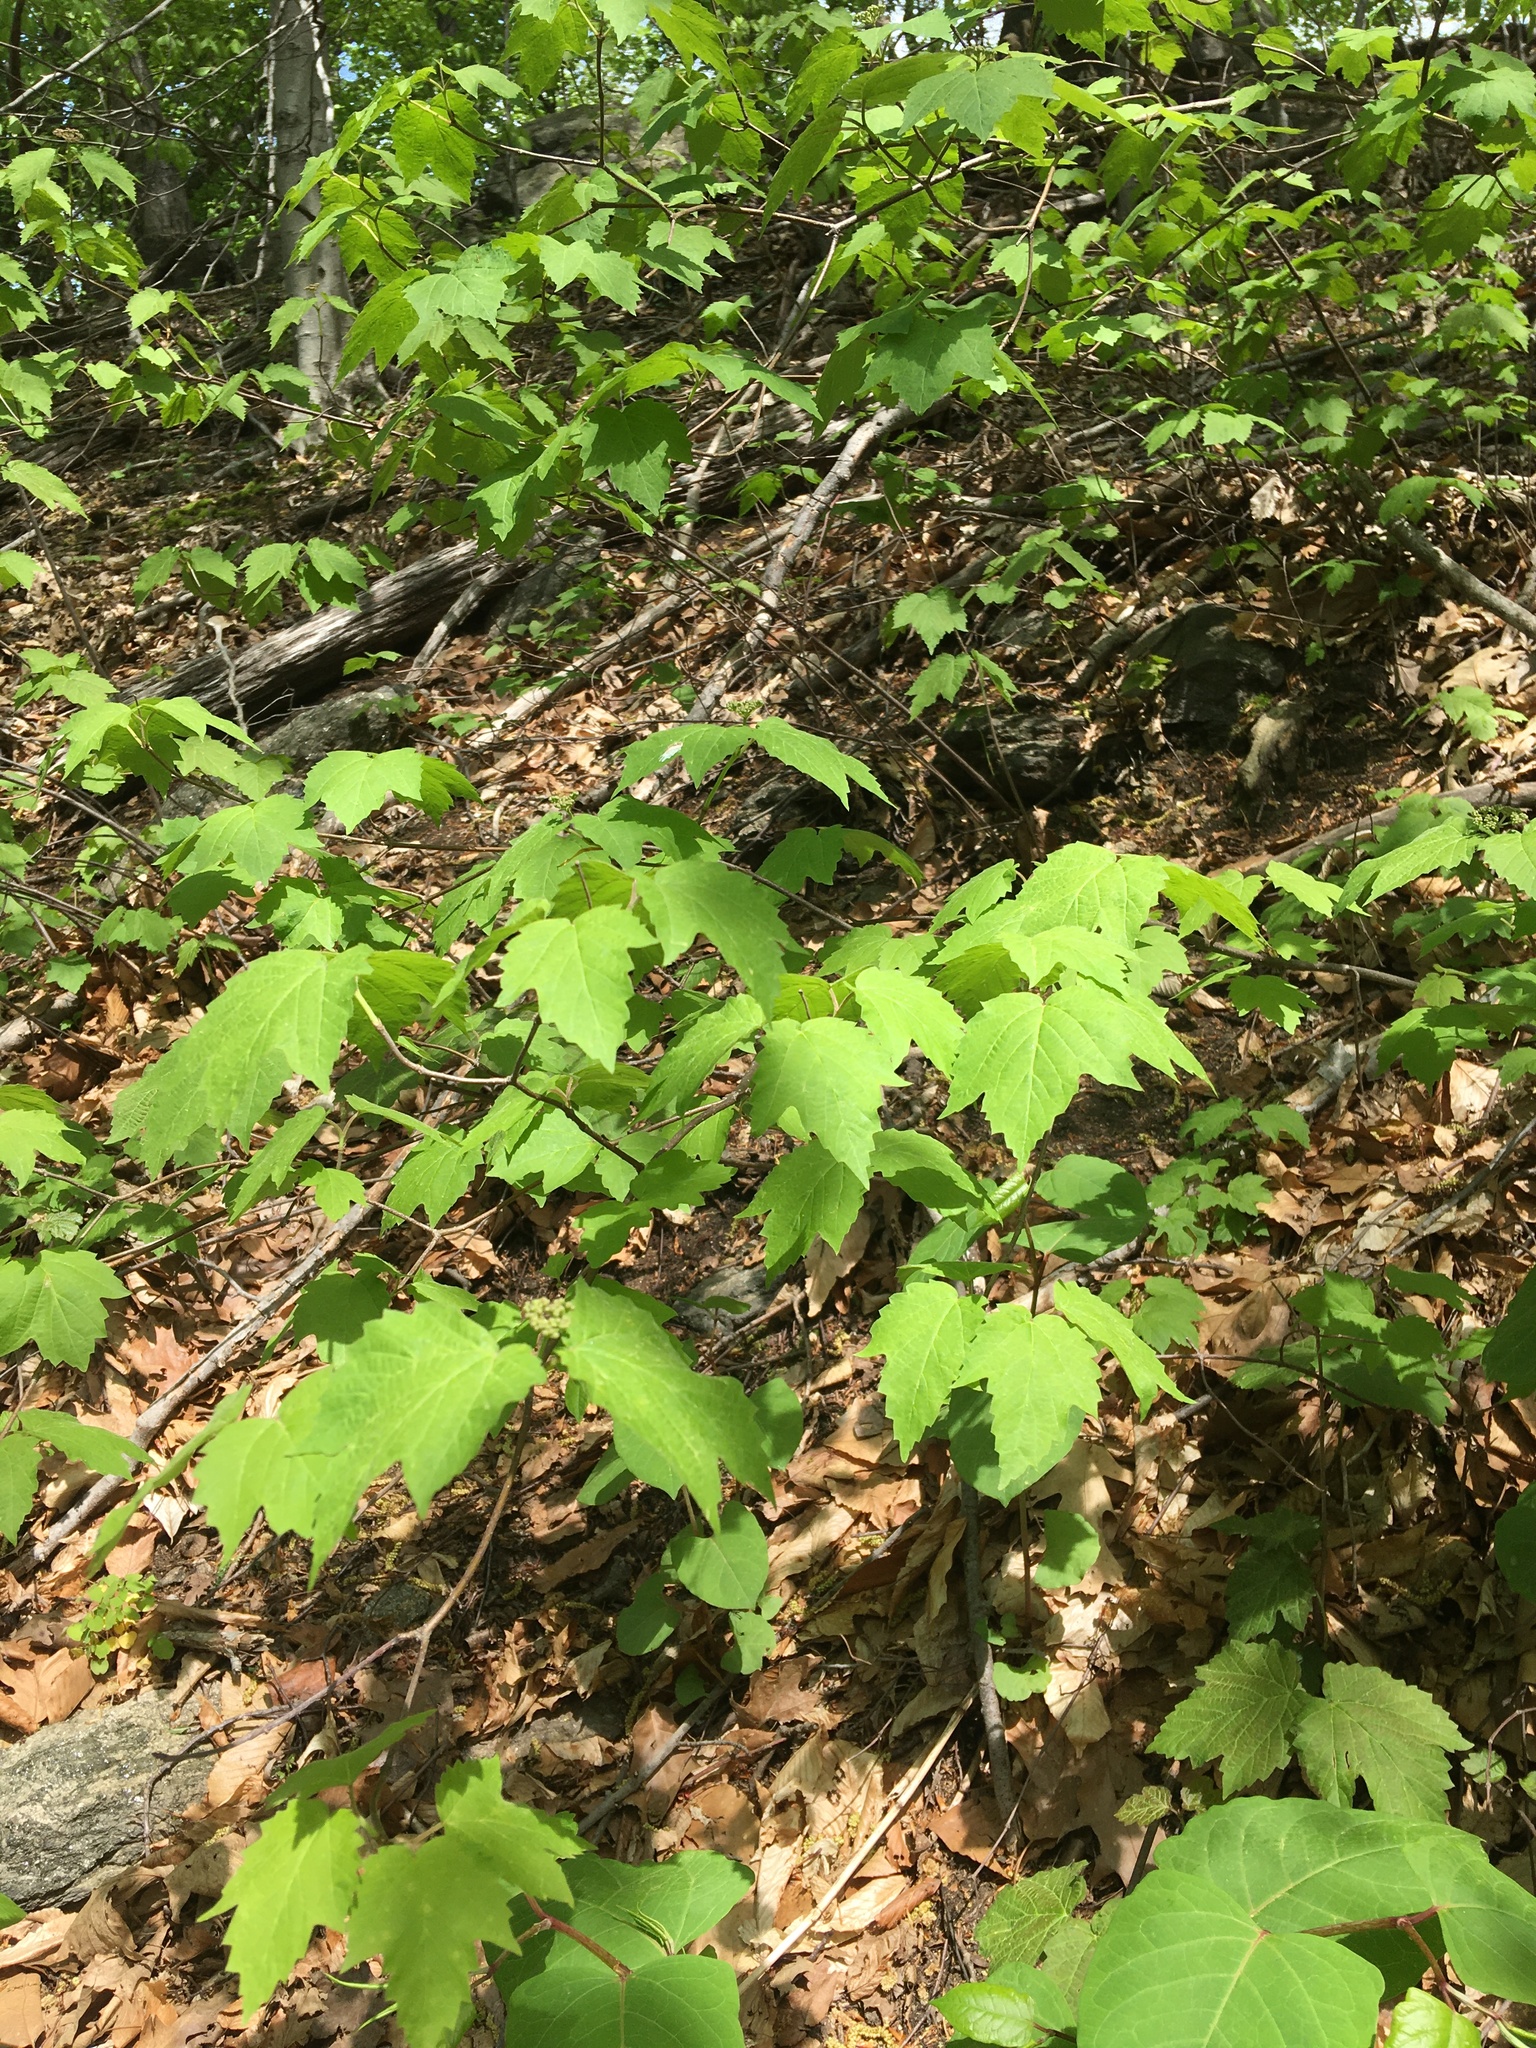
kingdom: Plantae
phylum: Tracheophyta
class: Magnoliopsida
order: Dipsacales
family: Viburnaceae
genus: Viburnum
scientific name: Viburnum acerifolium
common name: Dockmackie
